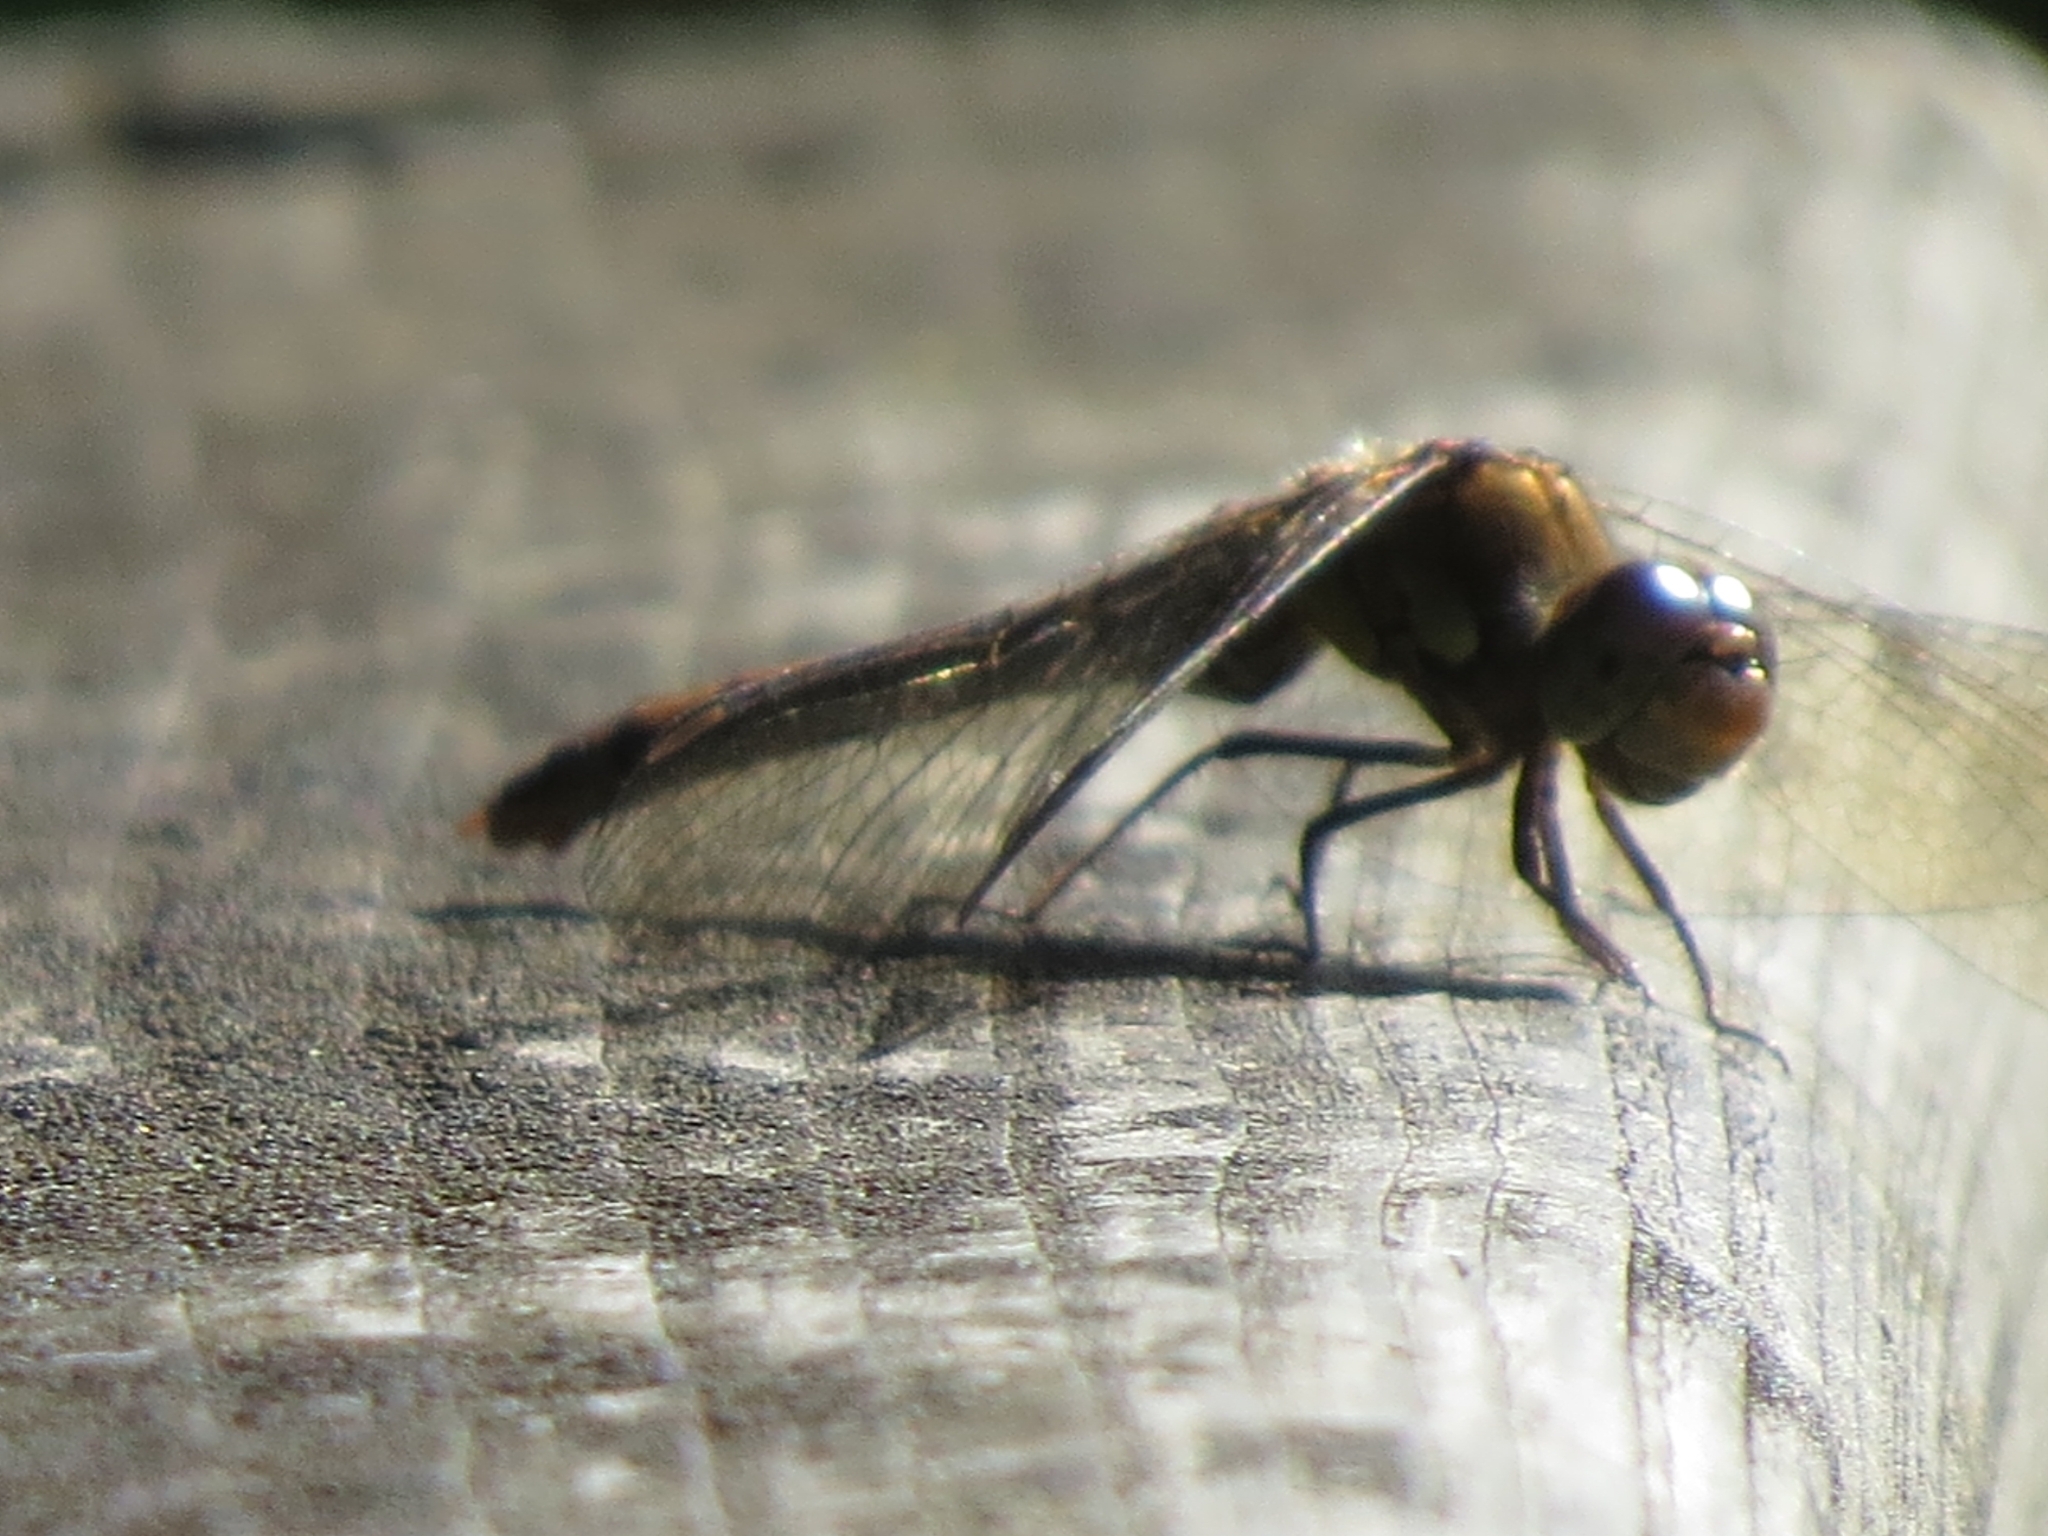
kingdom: Animalia
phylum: Arthropoda
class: Insecta
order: Odonata
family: Libellulidae
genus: Sympetrum
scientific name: Sympetrum striolatum
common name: Common darter
